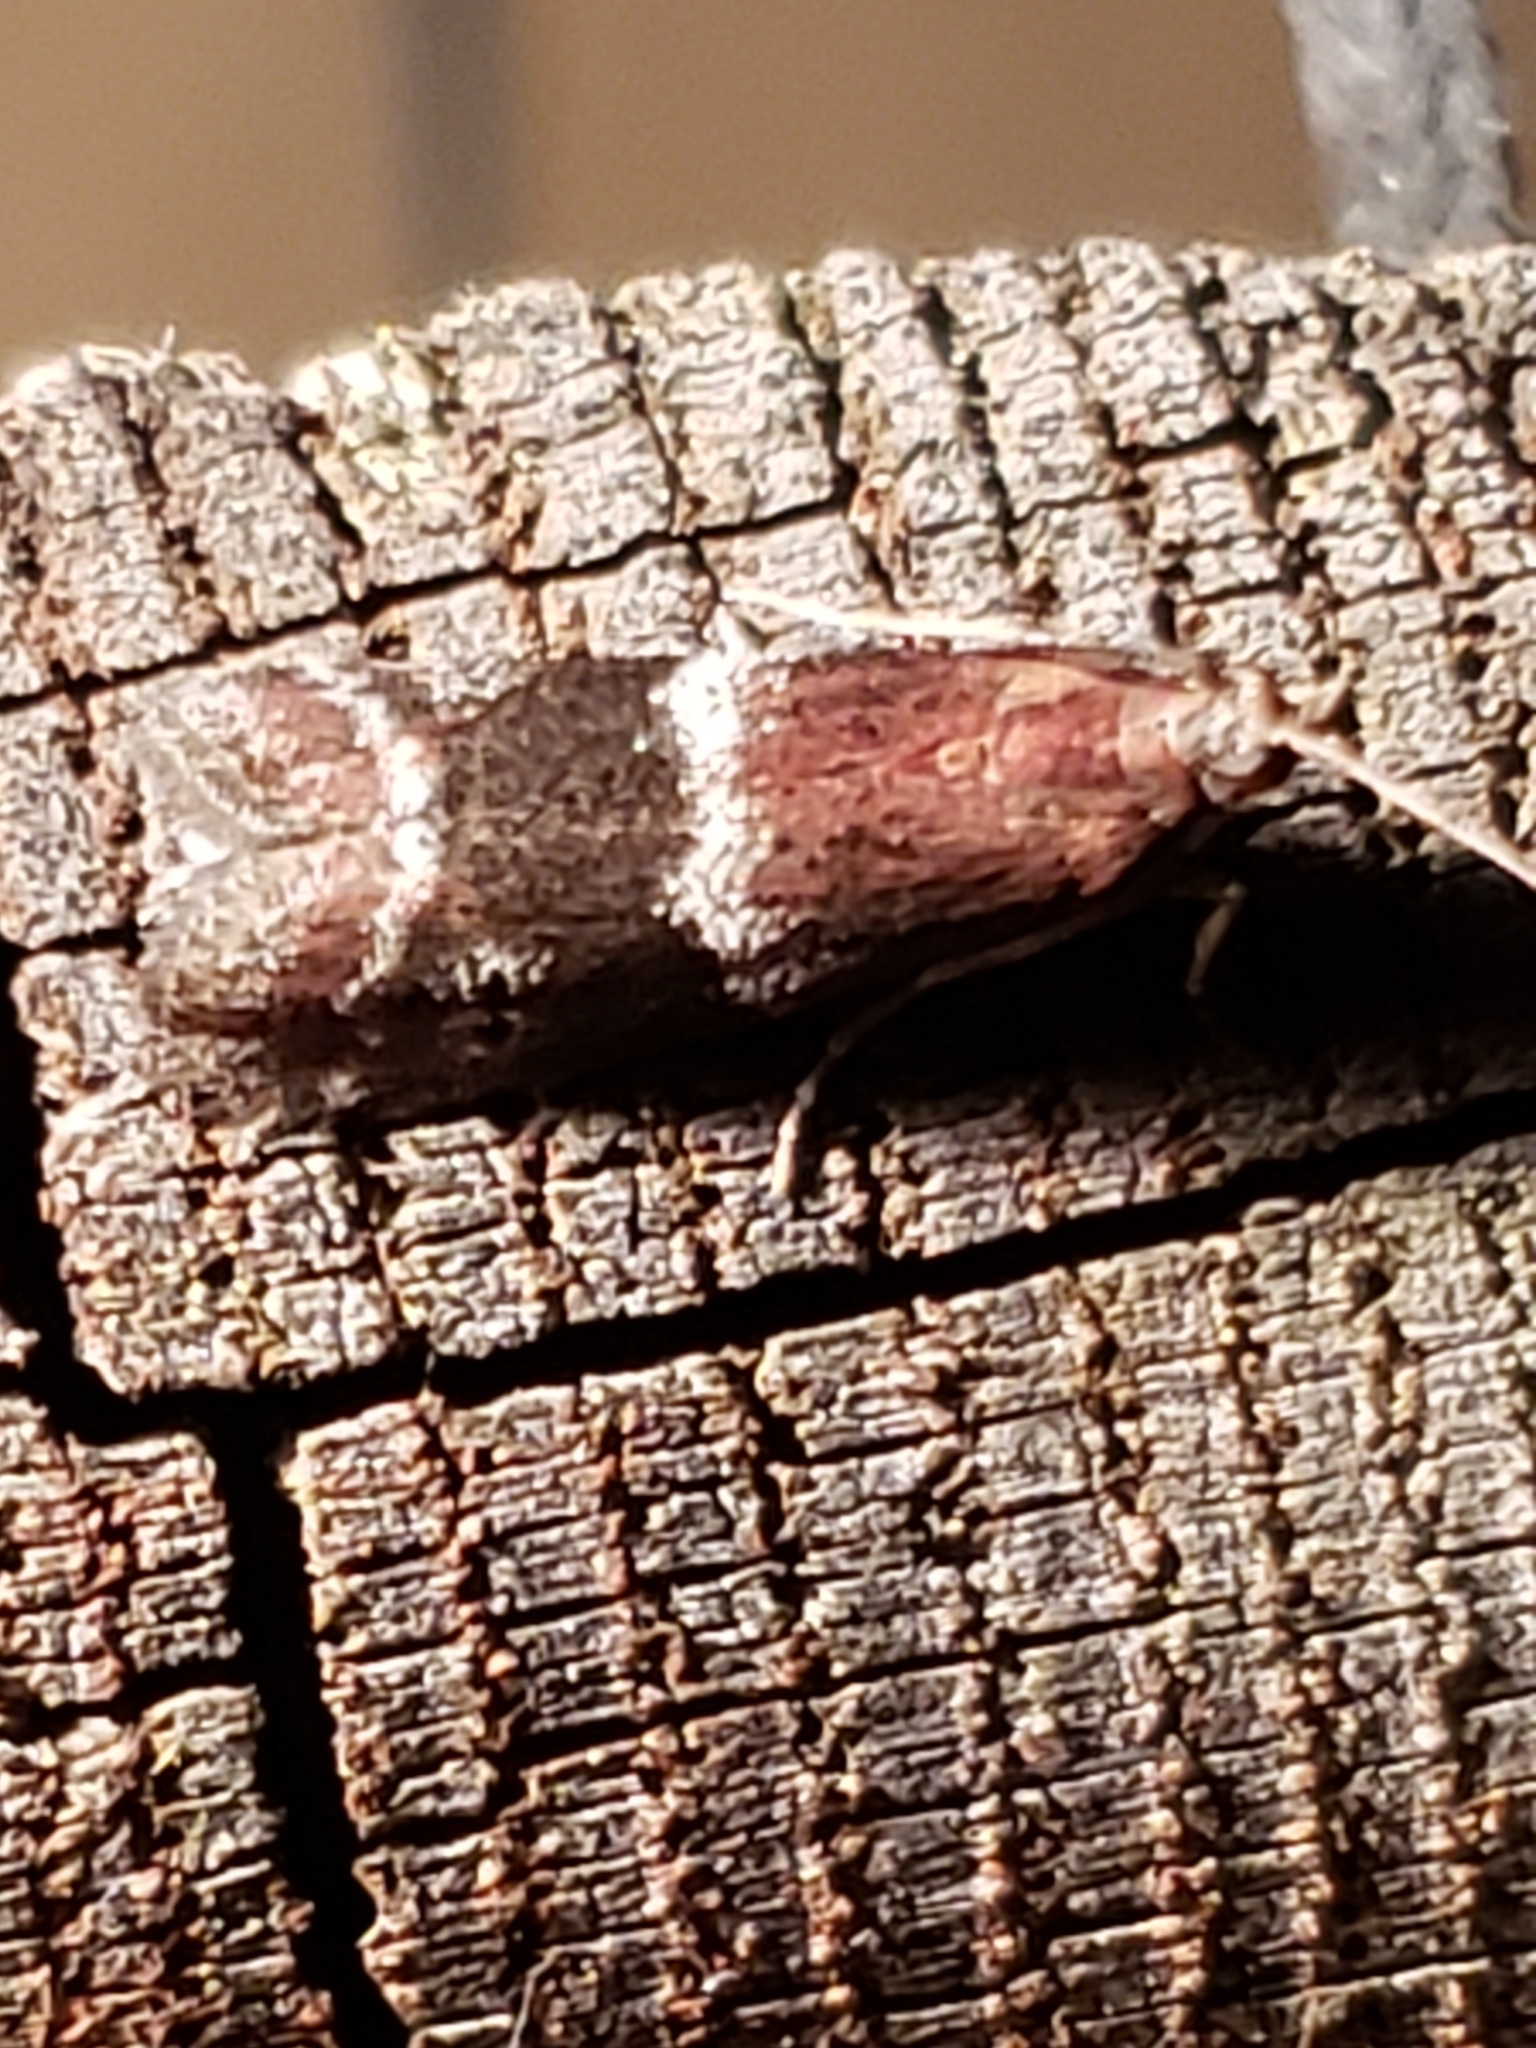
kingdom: Animalia
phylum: Arthropoda
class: Insecta
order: Lepidoptera
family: Pyralidae
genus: Moodna
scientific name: Moodna ostrinella
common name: Darker moodna moth
